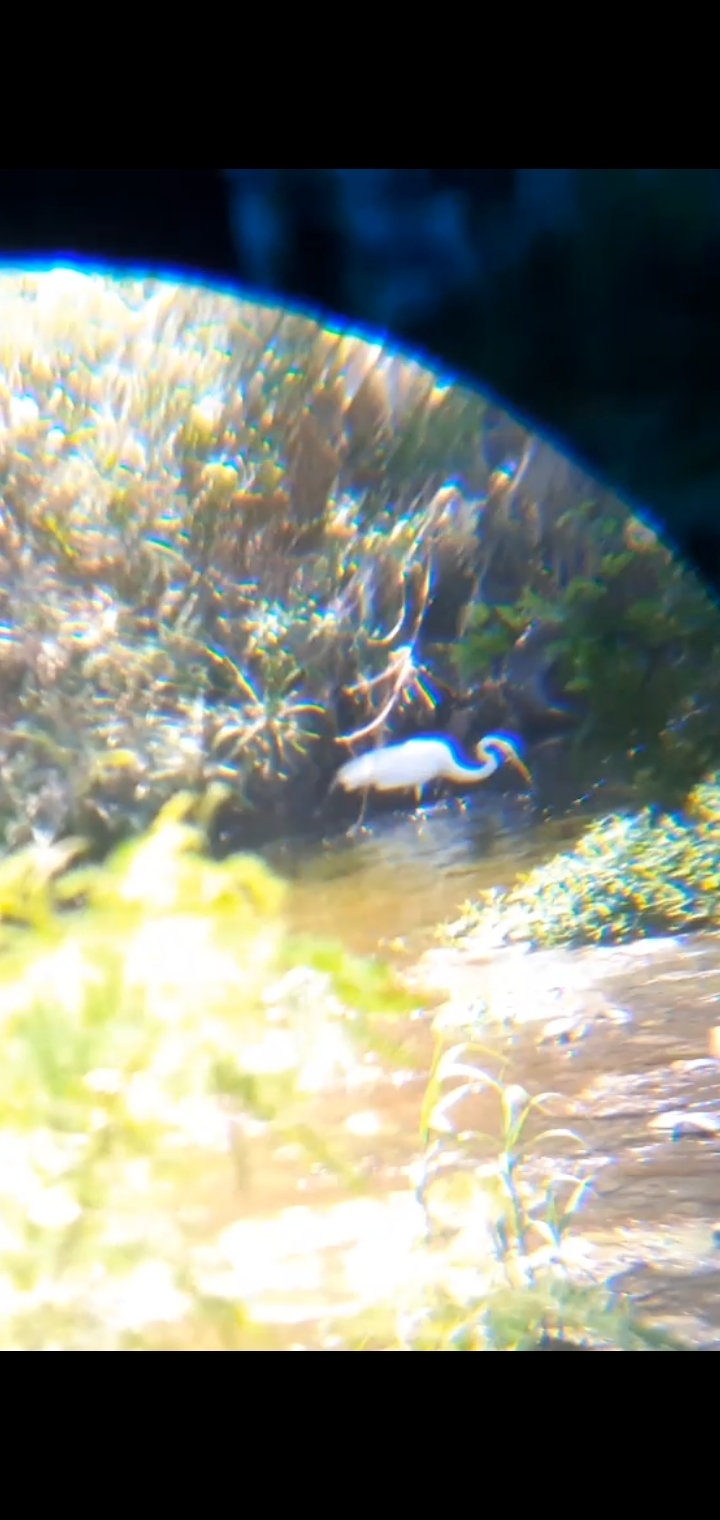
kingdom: Animalia
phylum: Chordata
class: Aves
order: Pelecaniformes
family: Ardeidae
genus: Ardea
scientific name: Ardea alba
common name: Great egret
